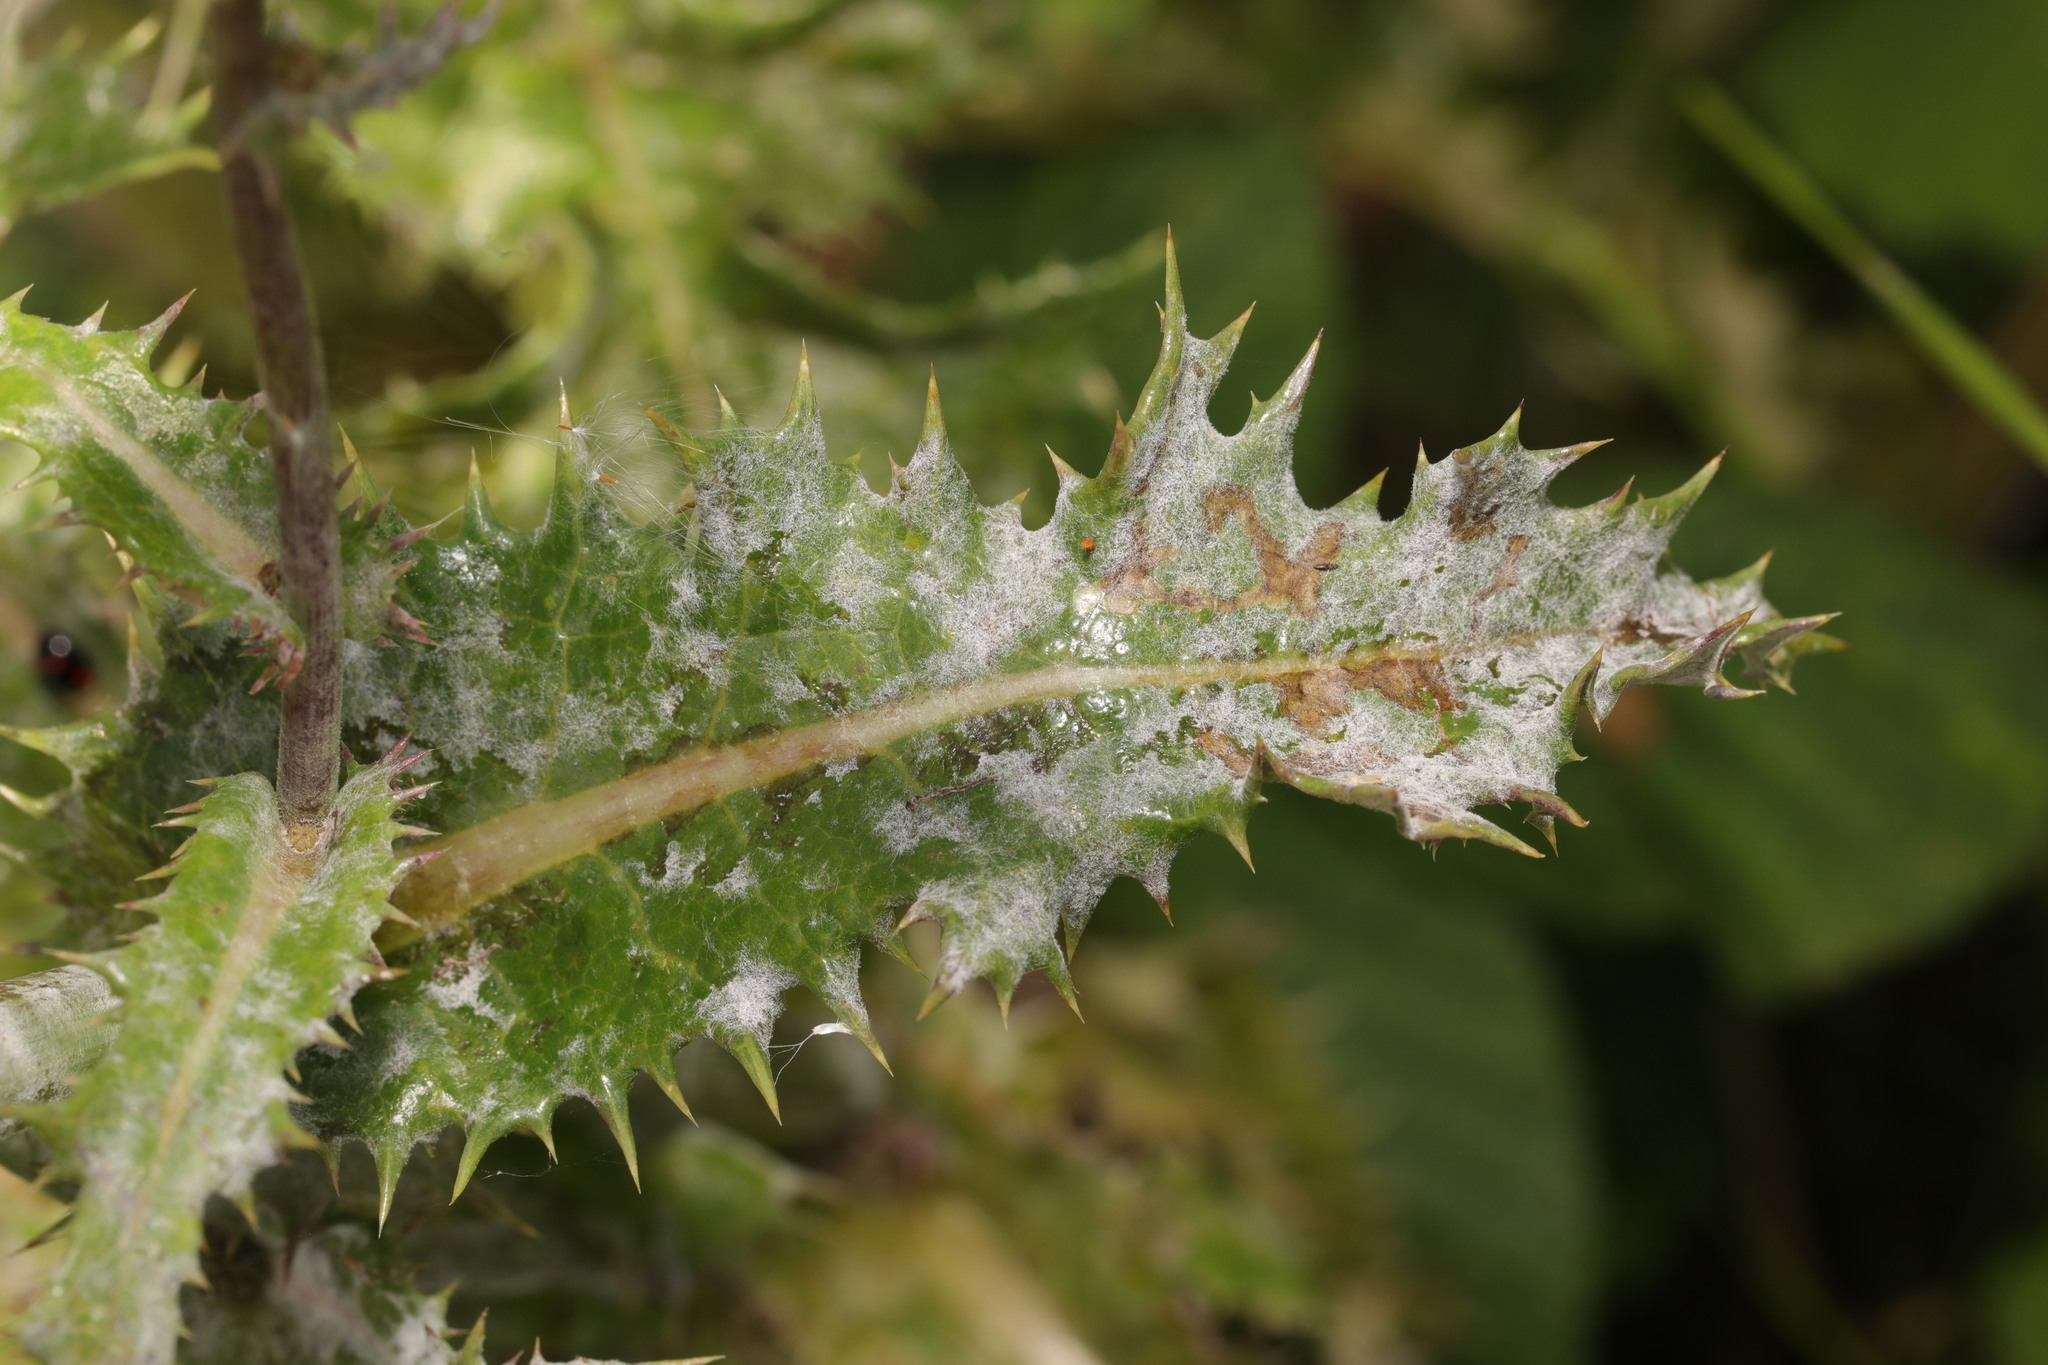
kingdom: Fungi
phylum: Ascomycota
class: Leotiomycetes
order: Helotiales
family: Erysiphaceae
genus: Golovinomyces
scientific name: Golovinomyces sonchicola
